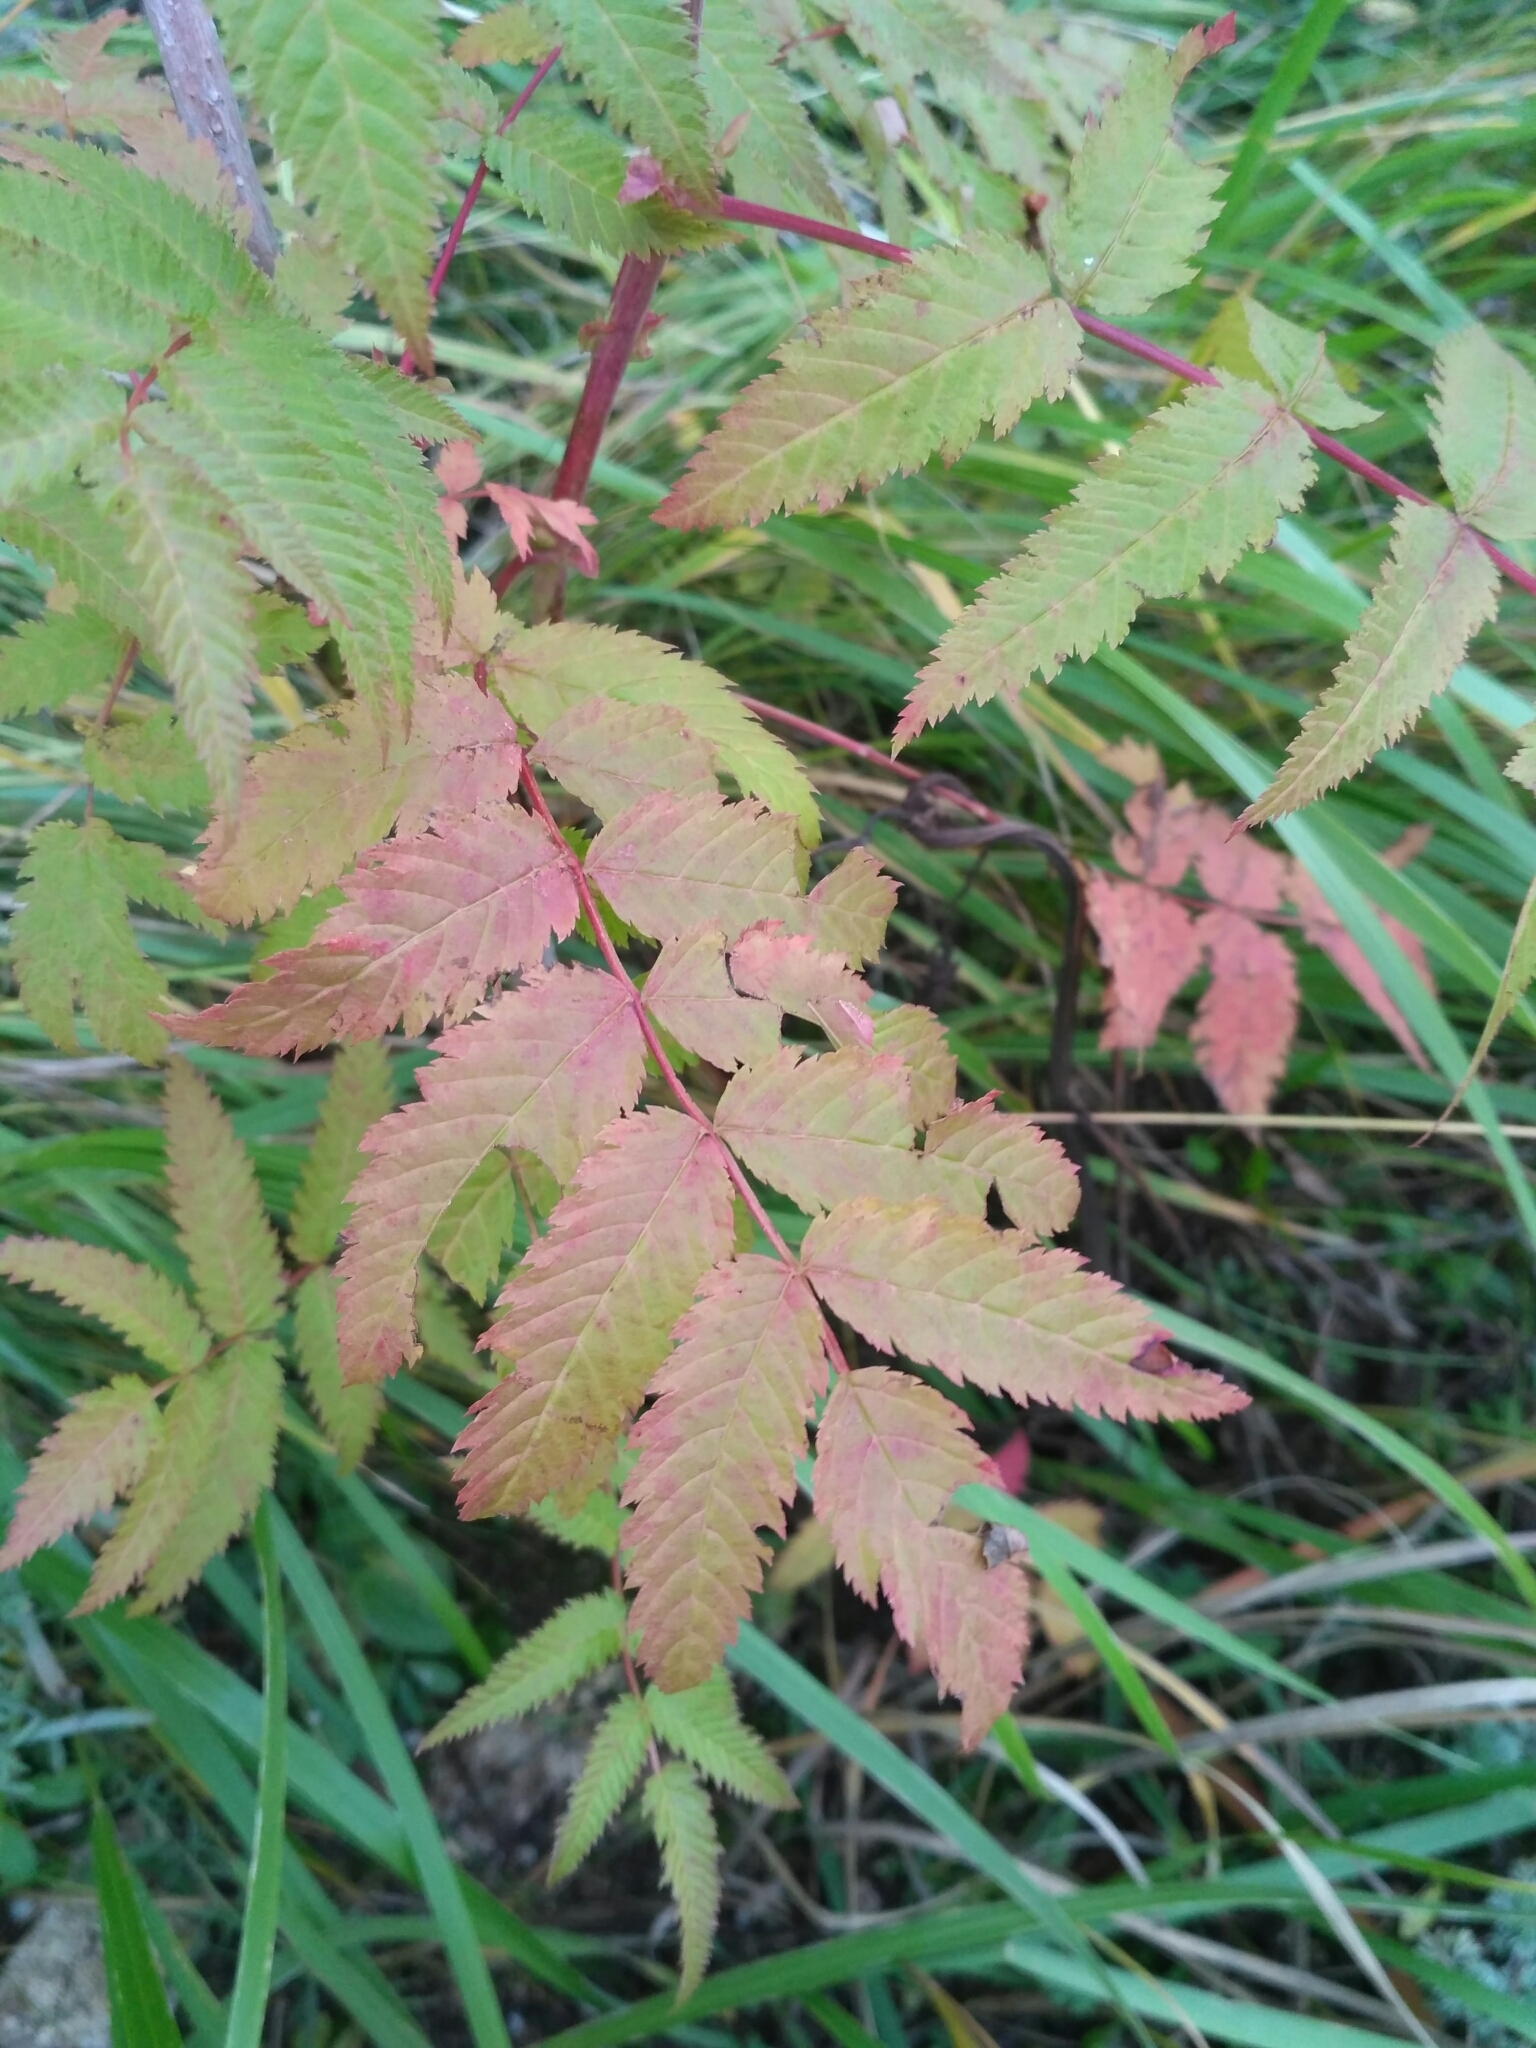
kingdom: Plantae
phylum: Tracheophyta
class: Magnoliopsida
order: Rosales
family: Rosaceae
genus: Sorbaria
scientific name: Sorbaria sorbifolia
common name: False spiraea
